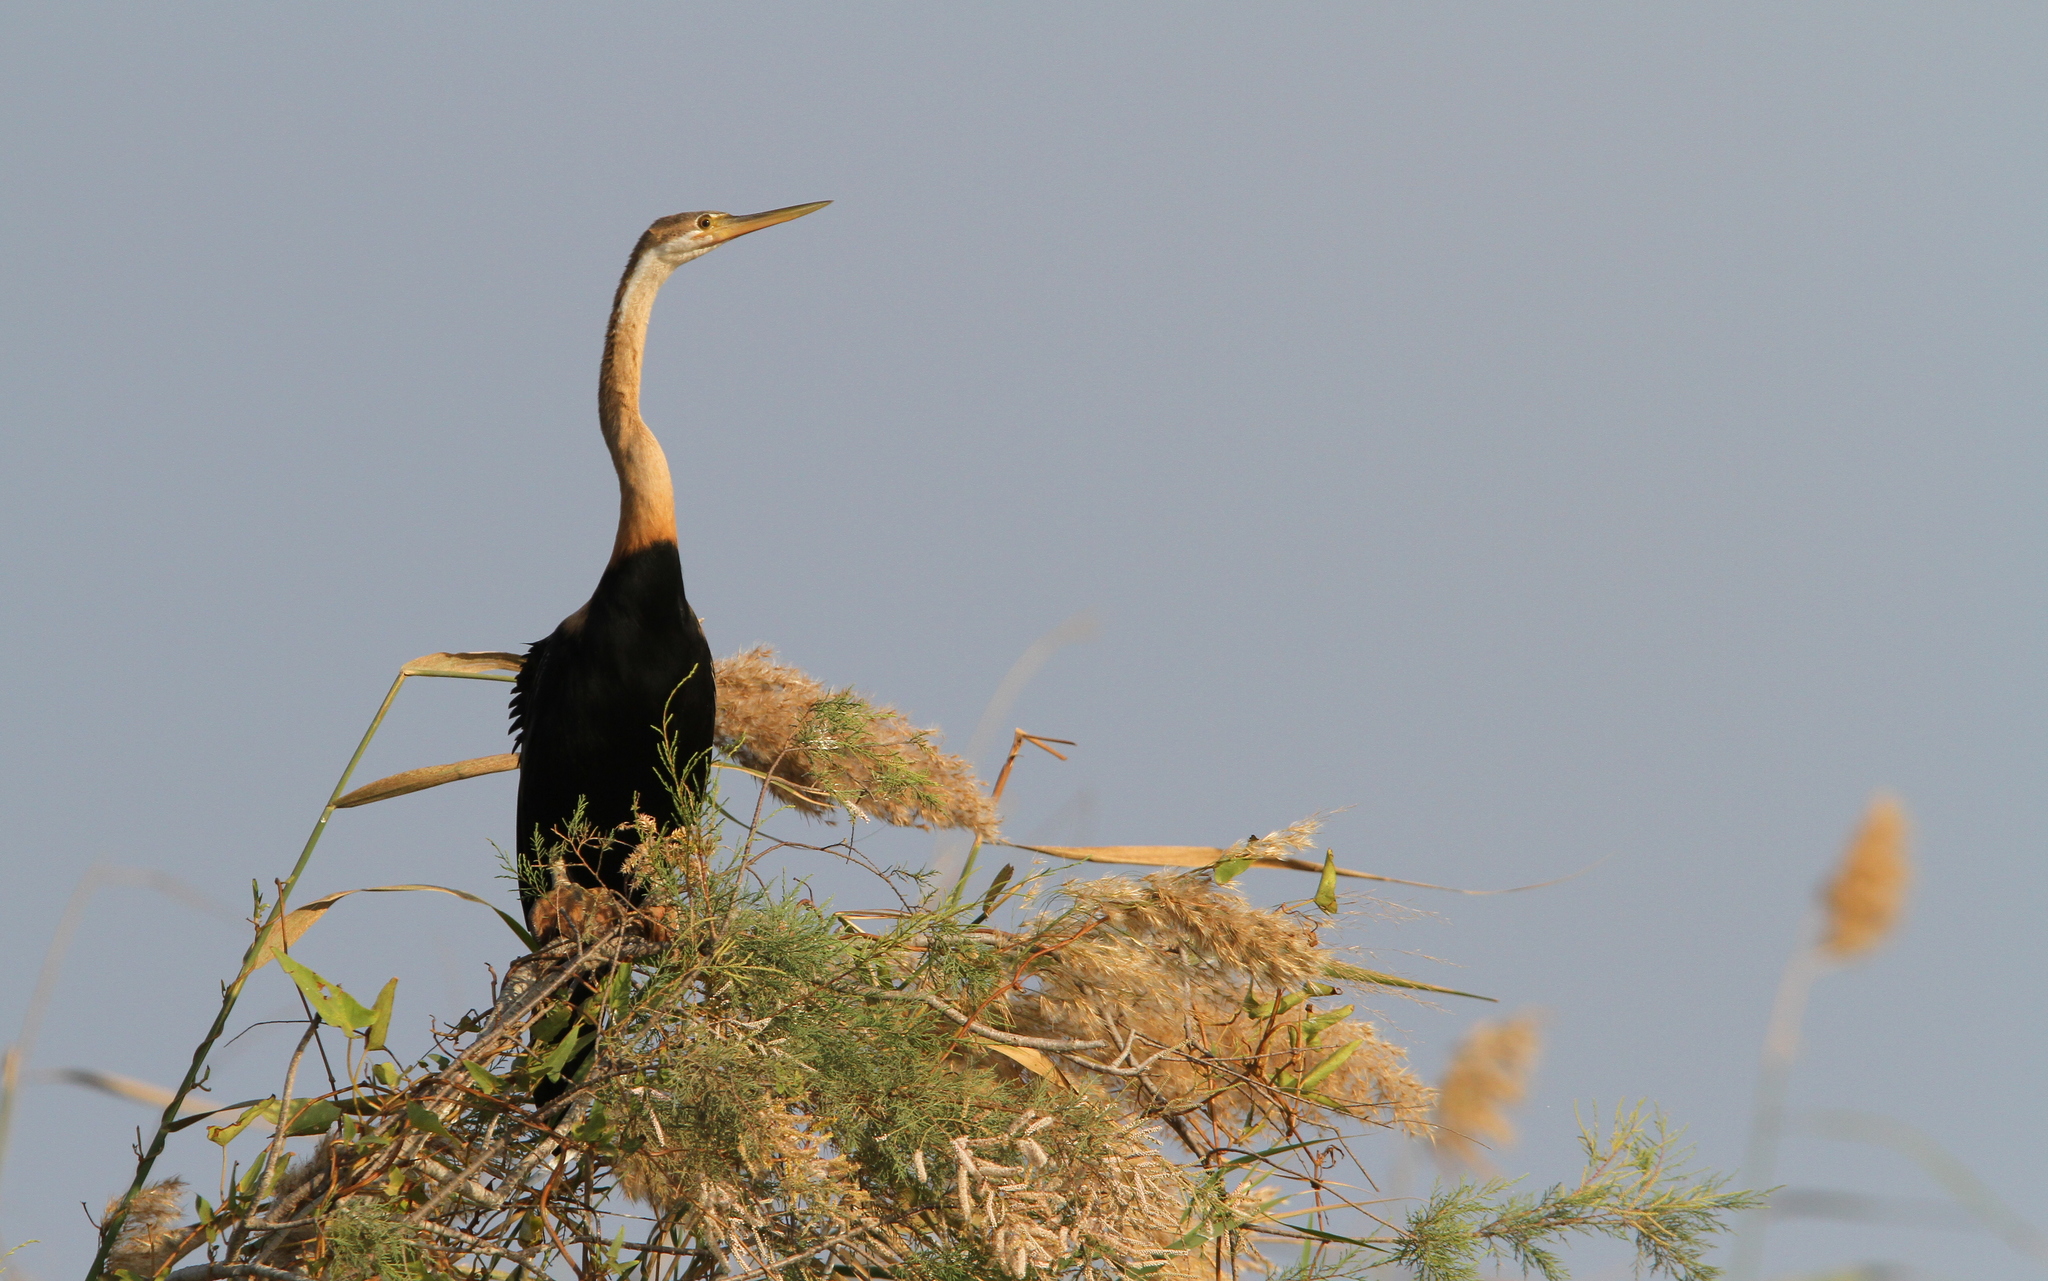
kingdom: Animalia
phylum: Chordata
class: Aves
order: Suliformes
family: Anhingidae
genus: Anhinga
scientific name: Anhinga rufa
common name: African darter
